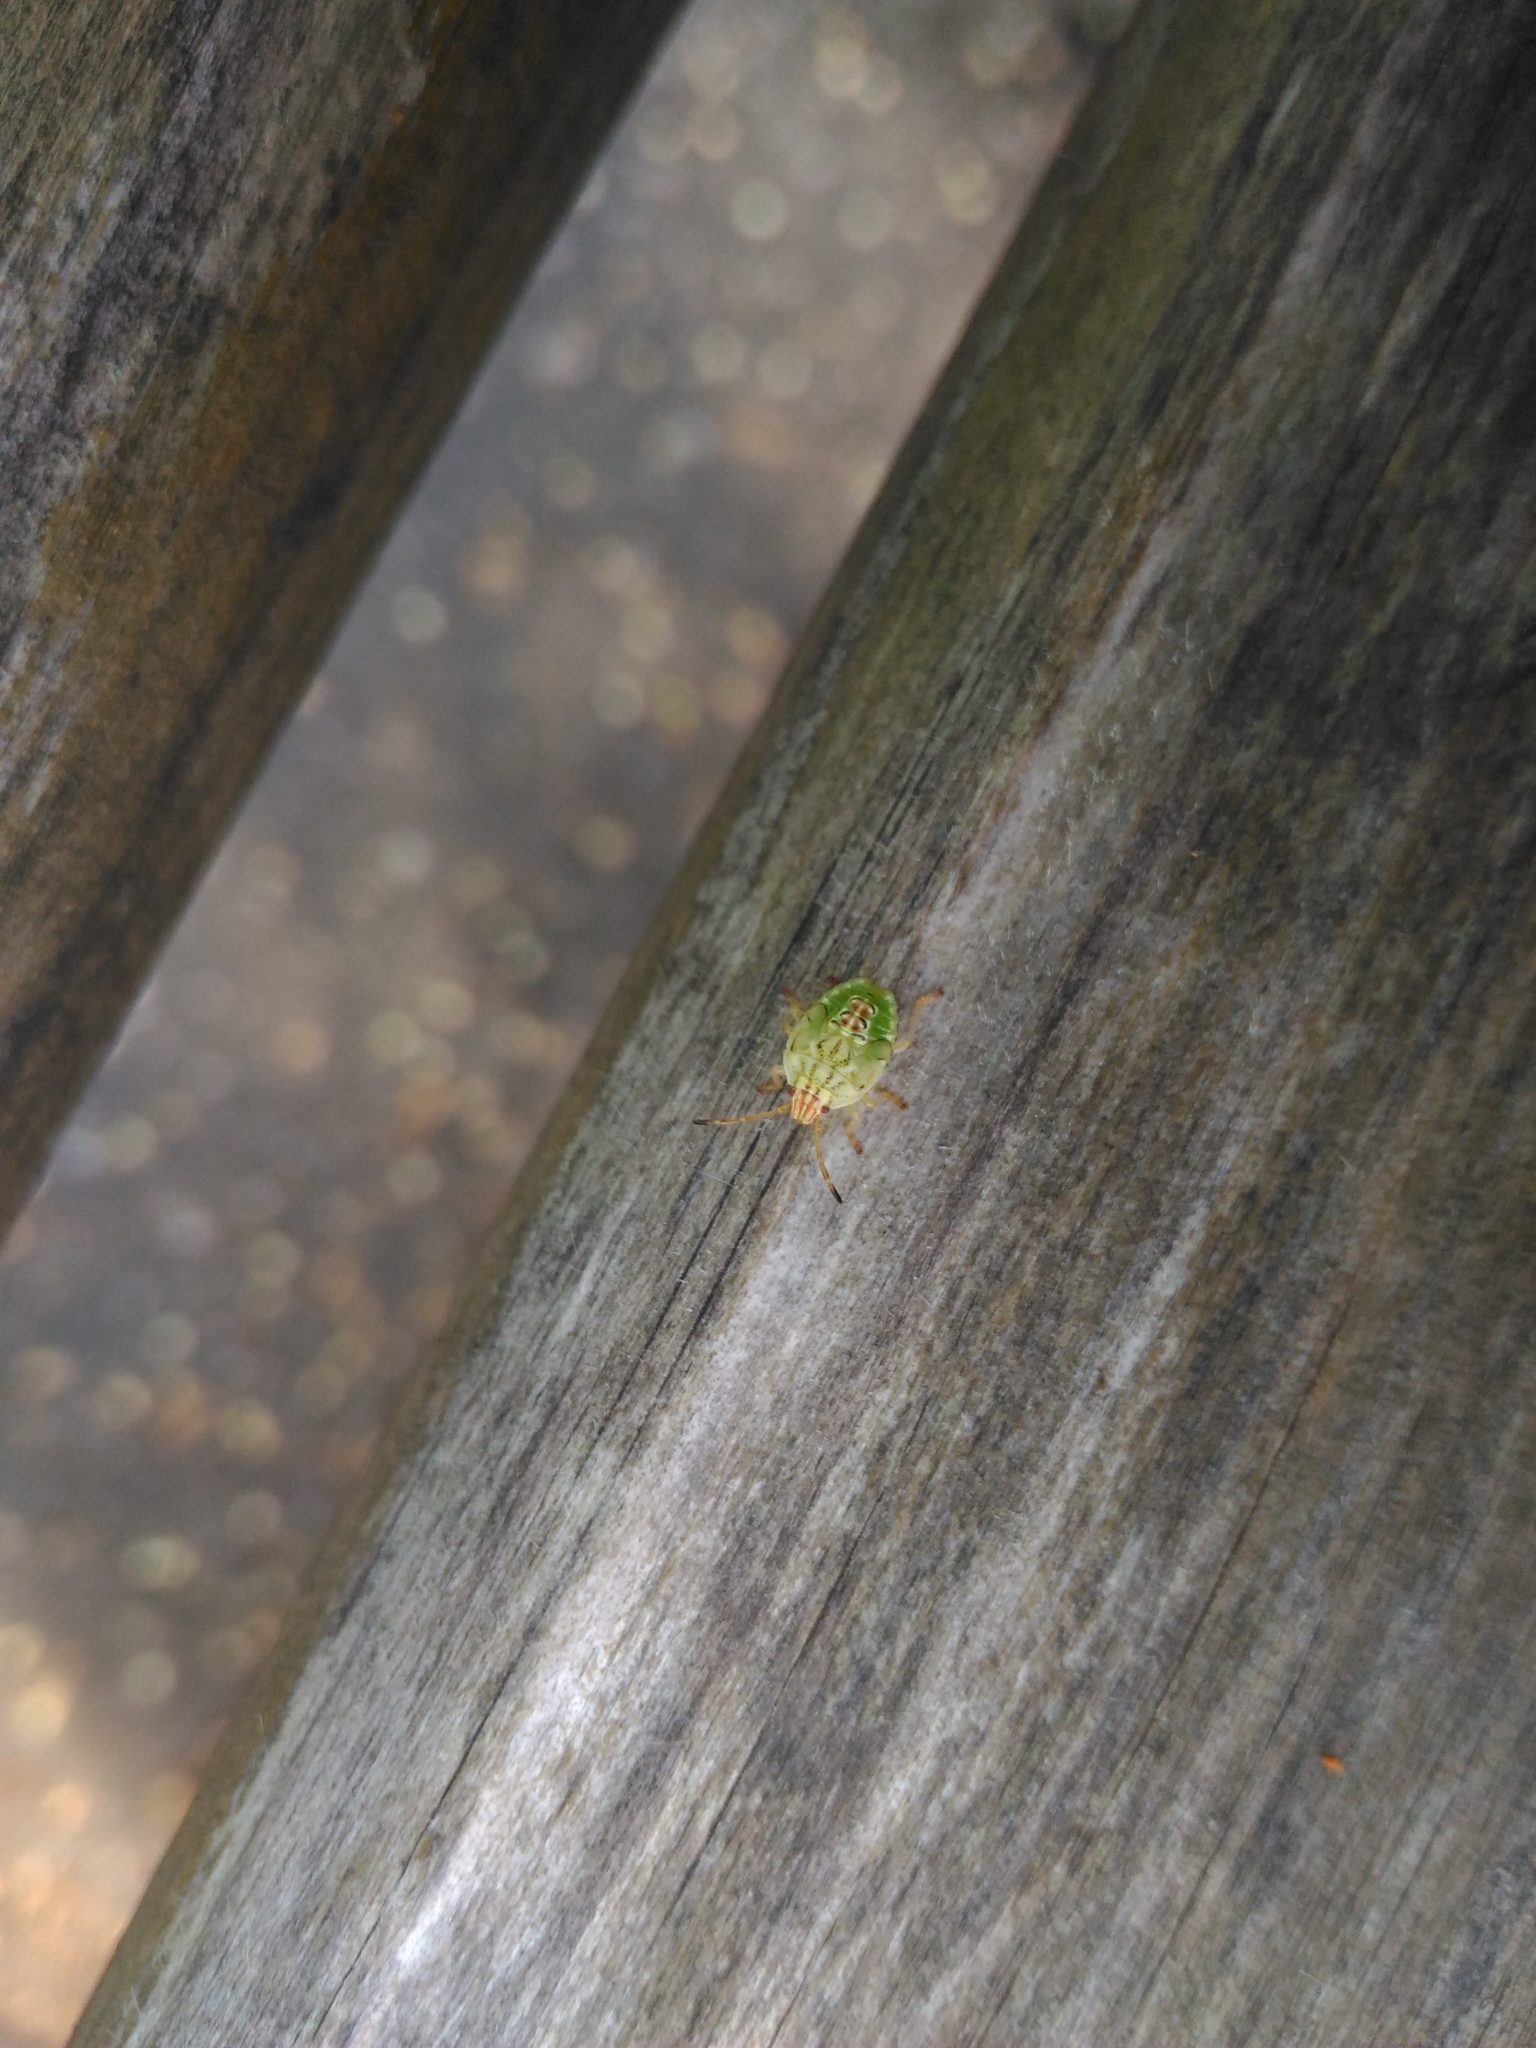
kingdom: Animalia
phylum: Arthropoda
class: Insecta
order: Hemiptera
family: Acanthosomatidae
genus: Elasmucha
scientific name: Elasmucha grisea
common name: Parent bug
